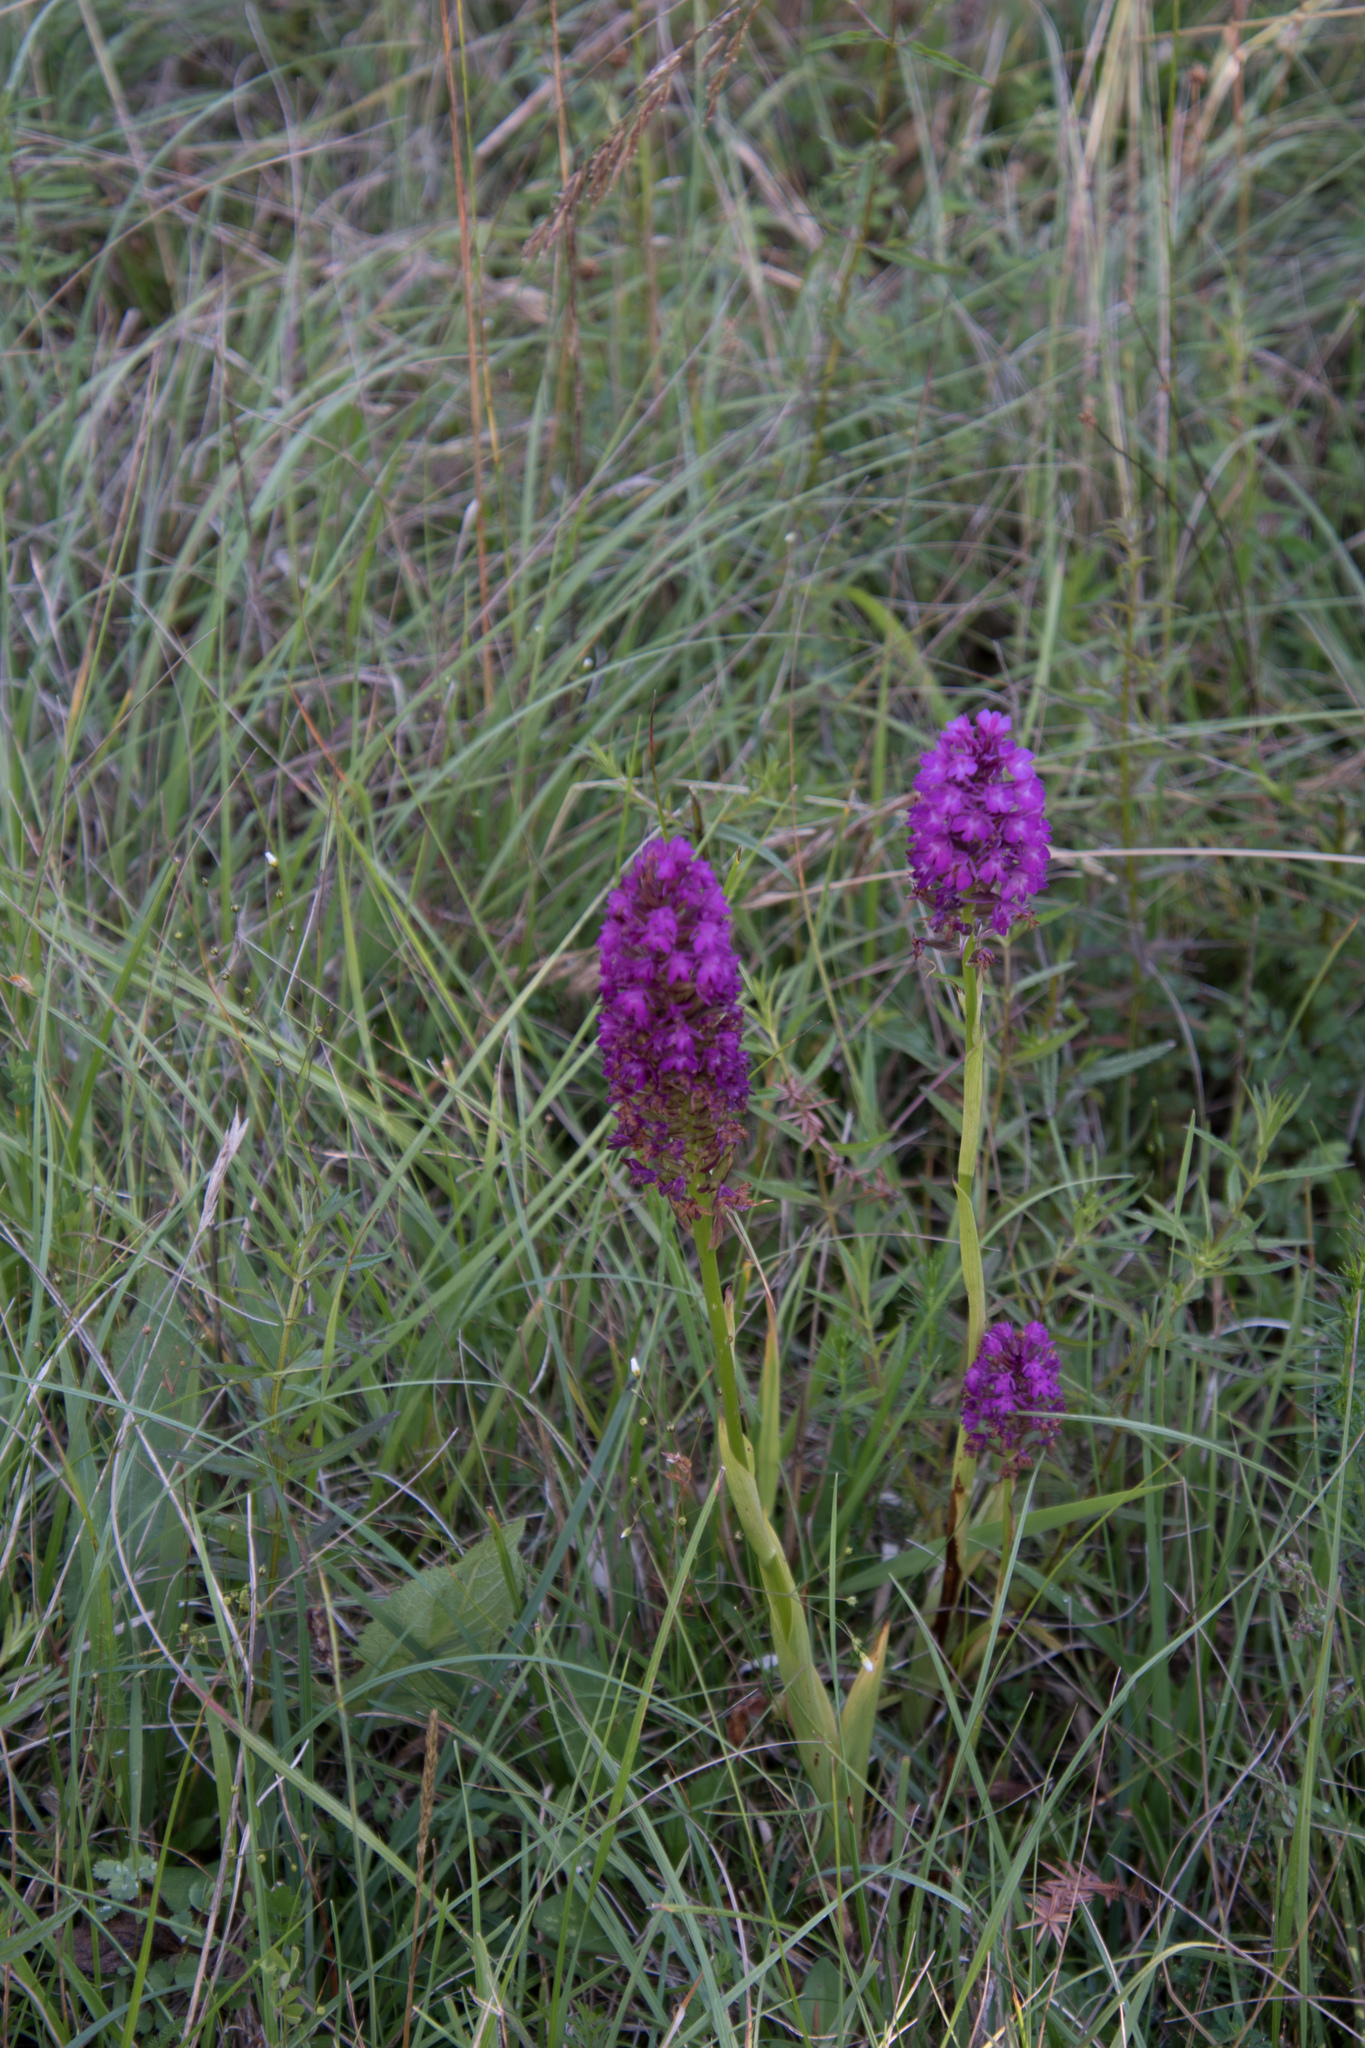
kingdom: Plantae
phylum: Tracheophyta
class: Liliopsida
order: Asparagales
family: Orchidaceae
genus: Anacamptis
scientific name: Anacamptis pyramidalis
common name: Pyramidal orchid
